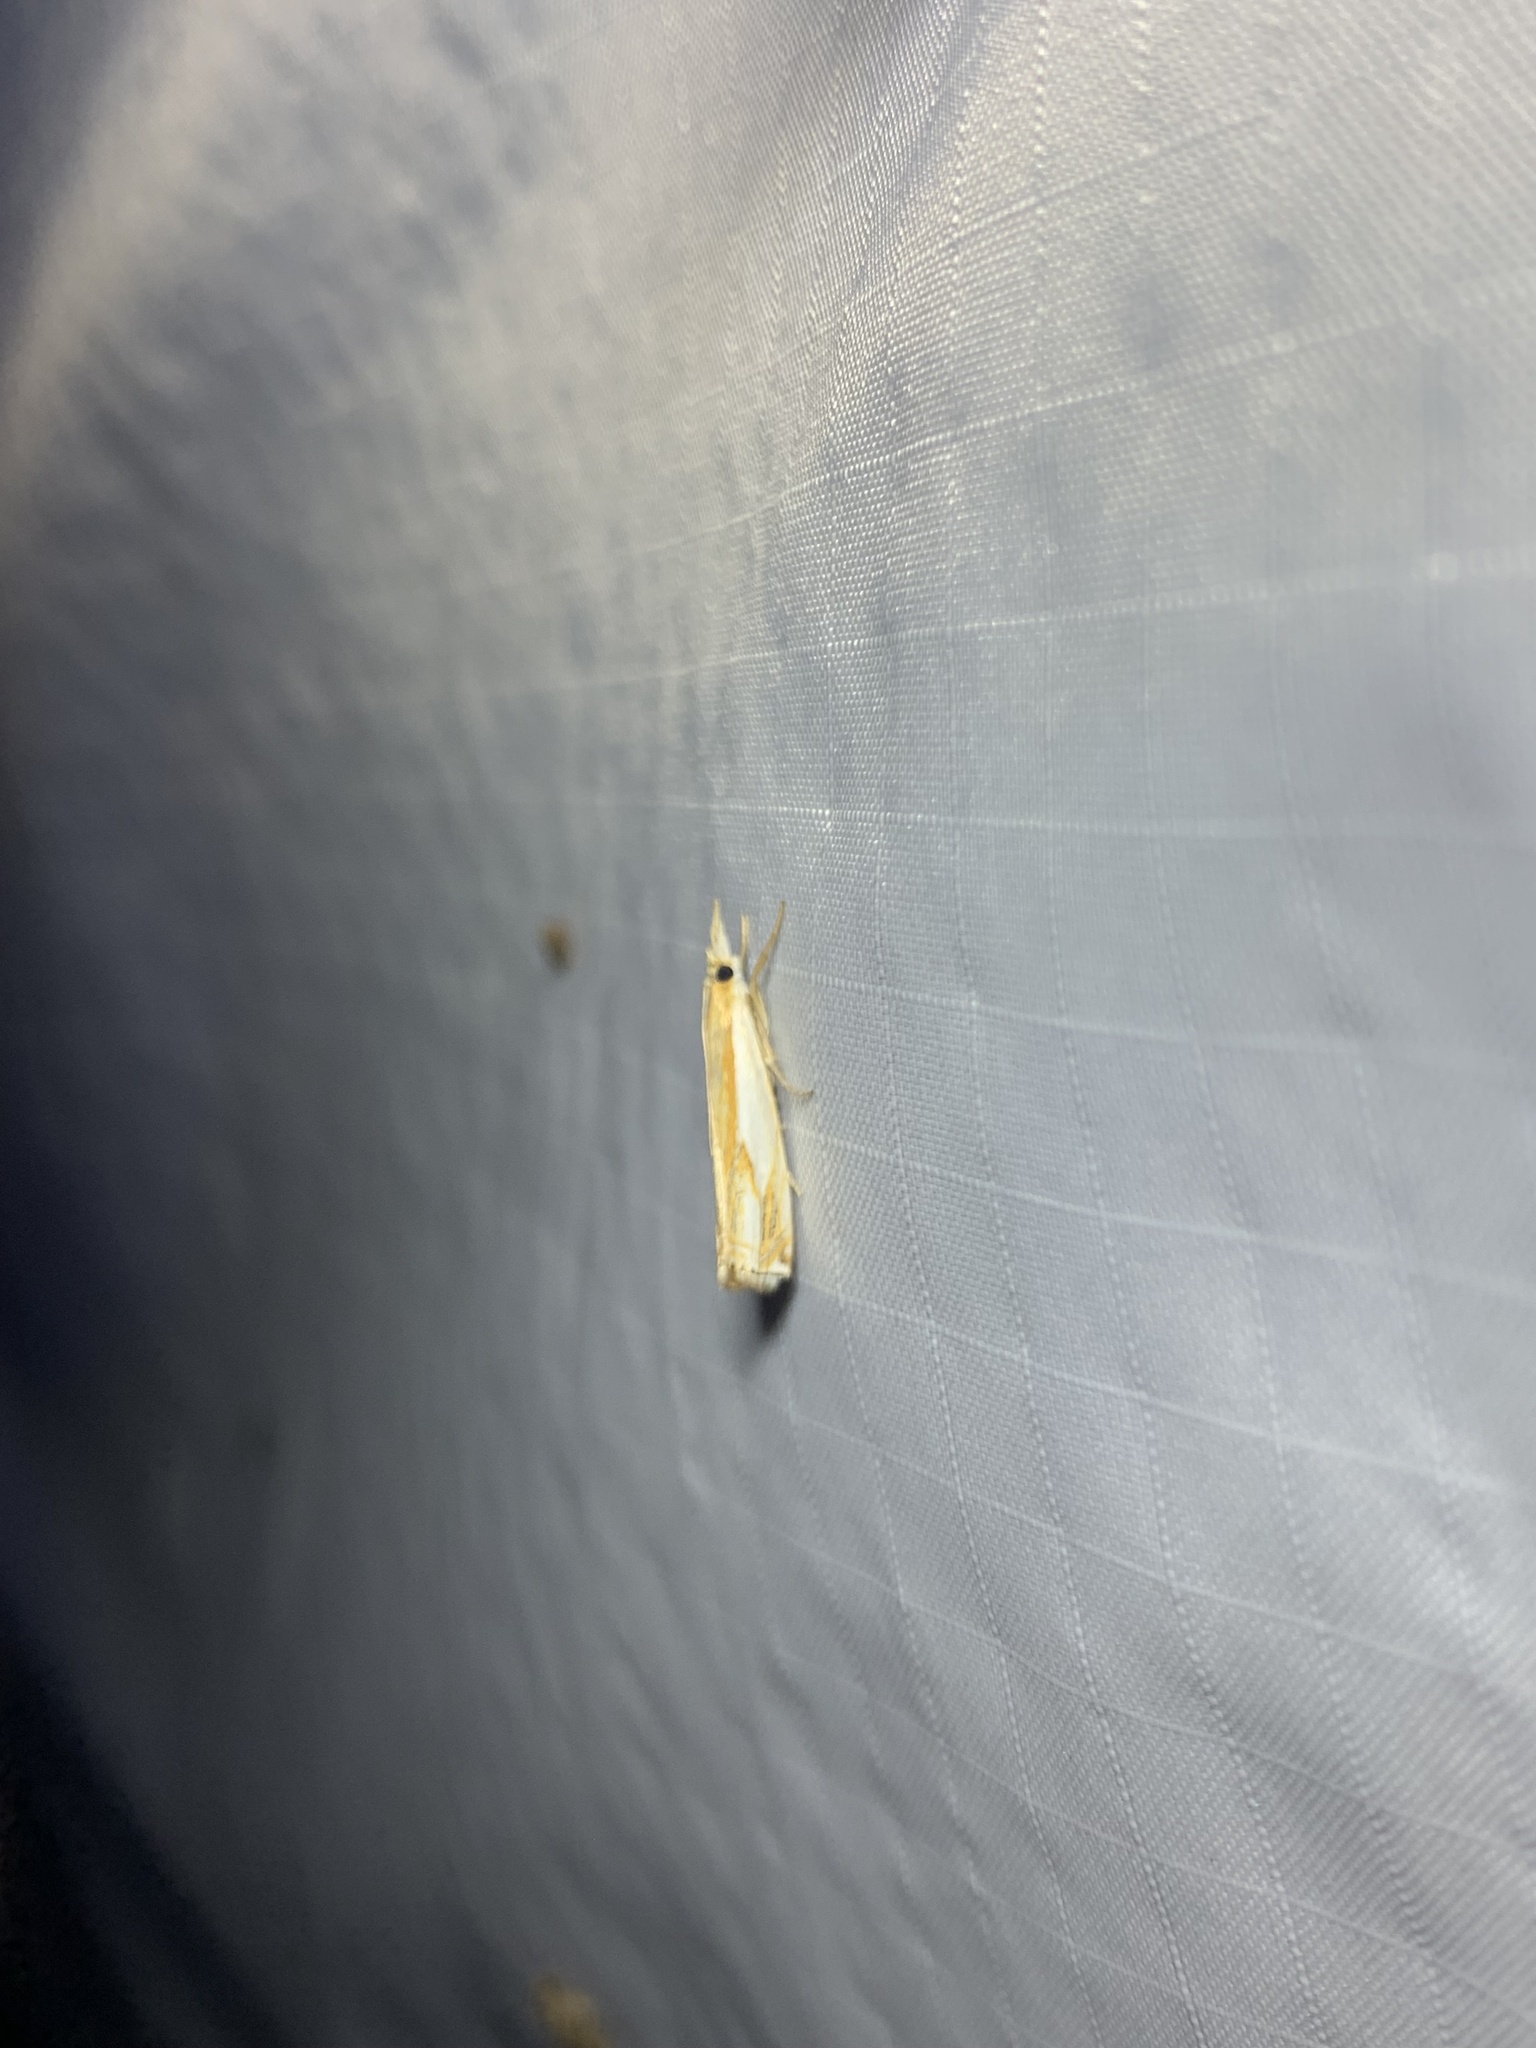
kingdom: Animalia
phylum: Arthropoda
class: Insecta
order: Lepidoptera
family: Crambidae
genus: Crambus
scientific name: Crambus agitatellus
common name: Double-banded grass-veneer
